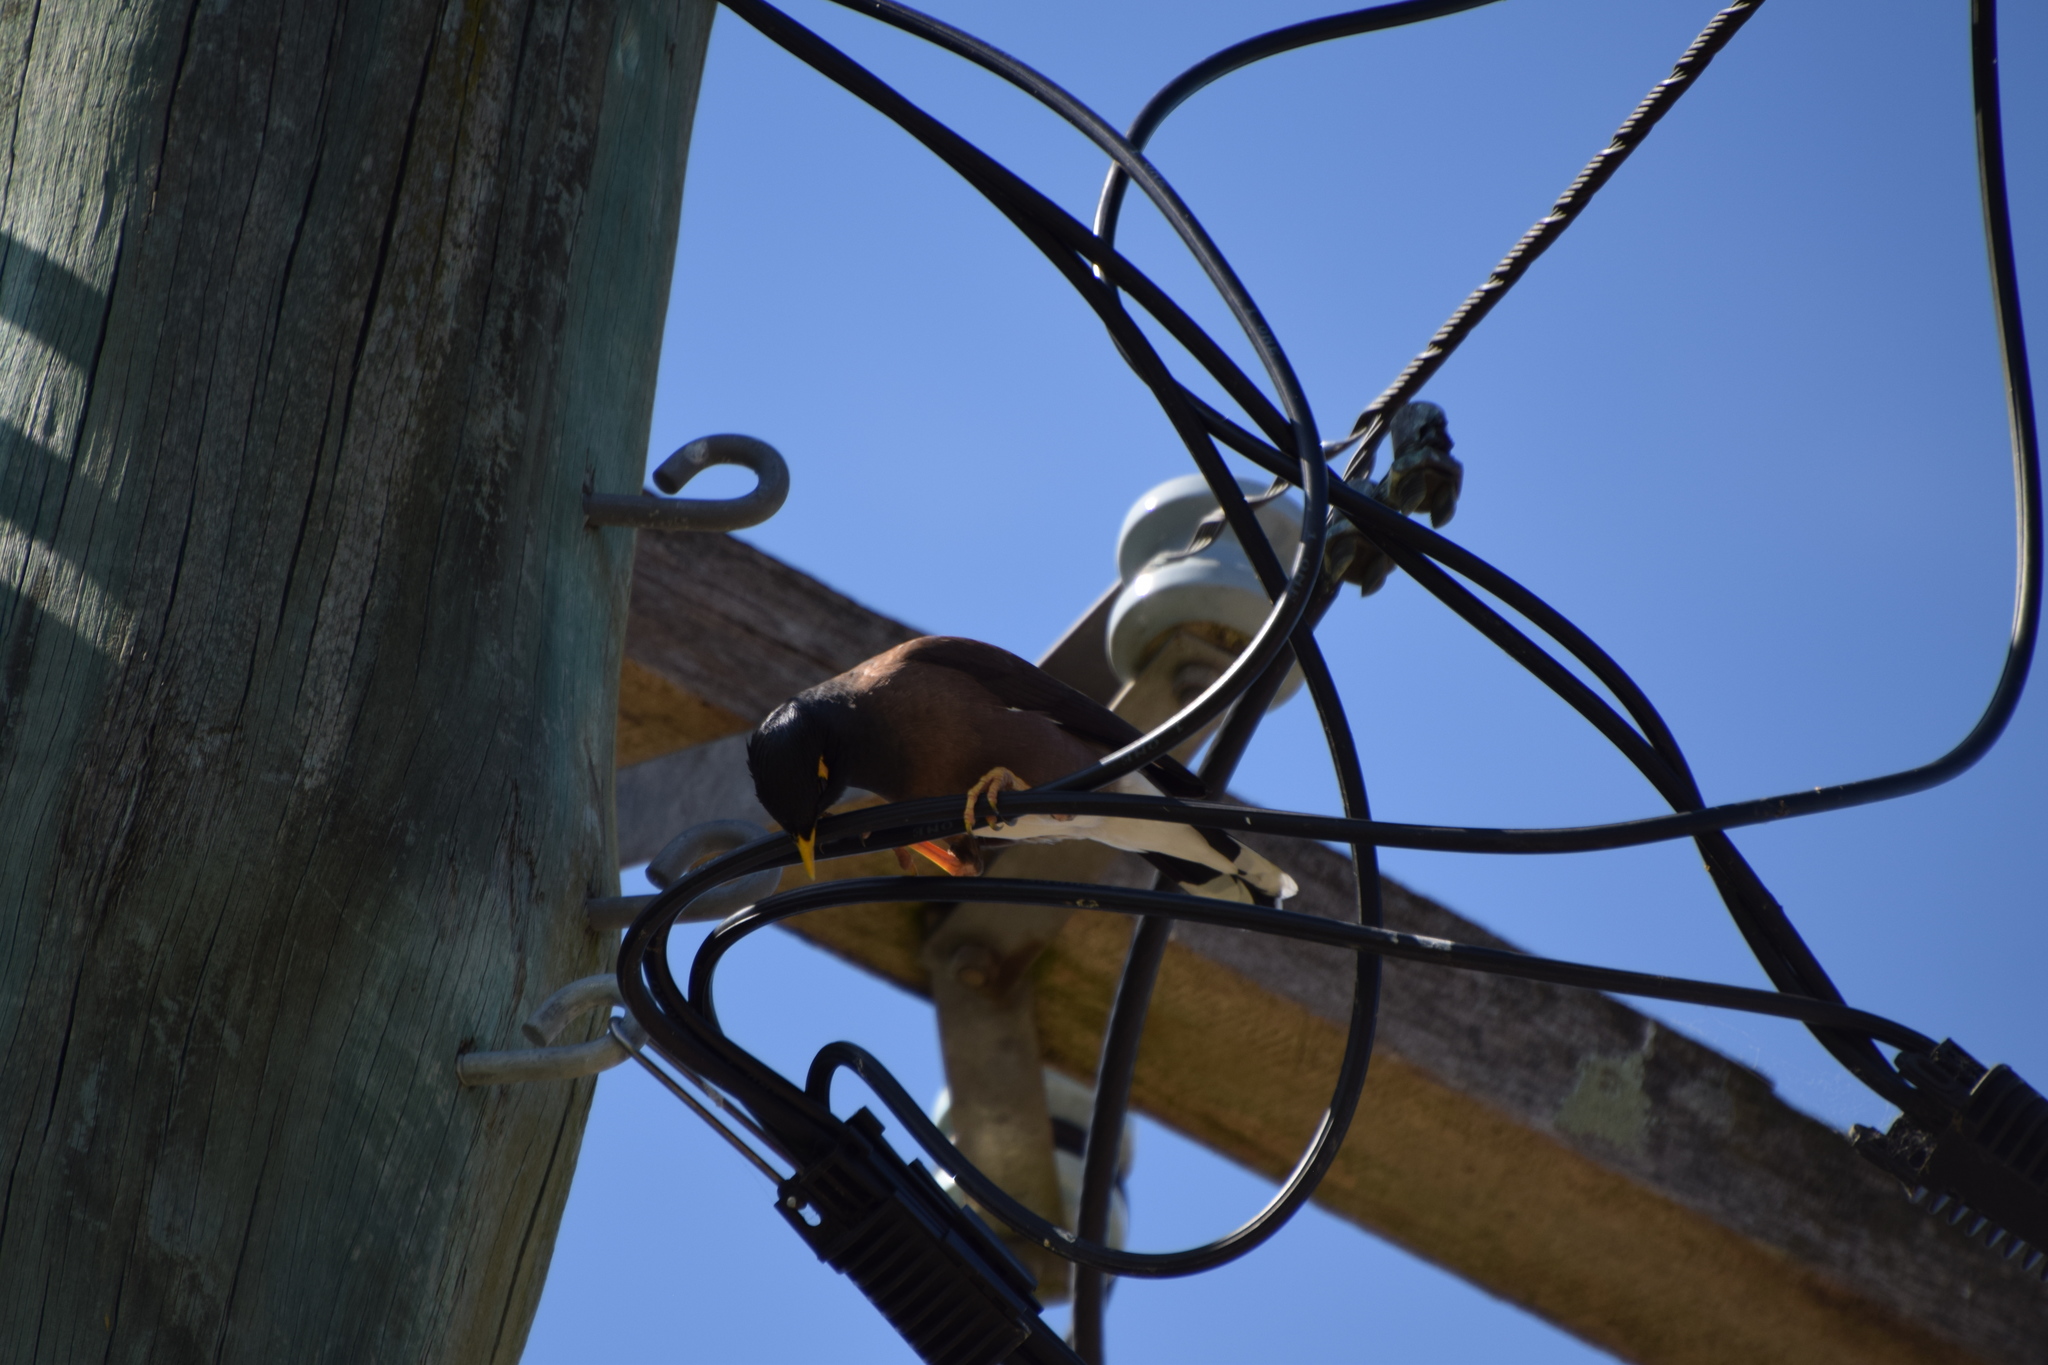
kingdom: Animalia
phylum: Chordata
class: Aves
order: Passeriformes
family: Sturnidae
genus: Acridotheres
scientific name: Acridotheres tristis
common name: Common myna
